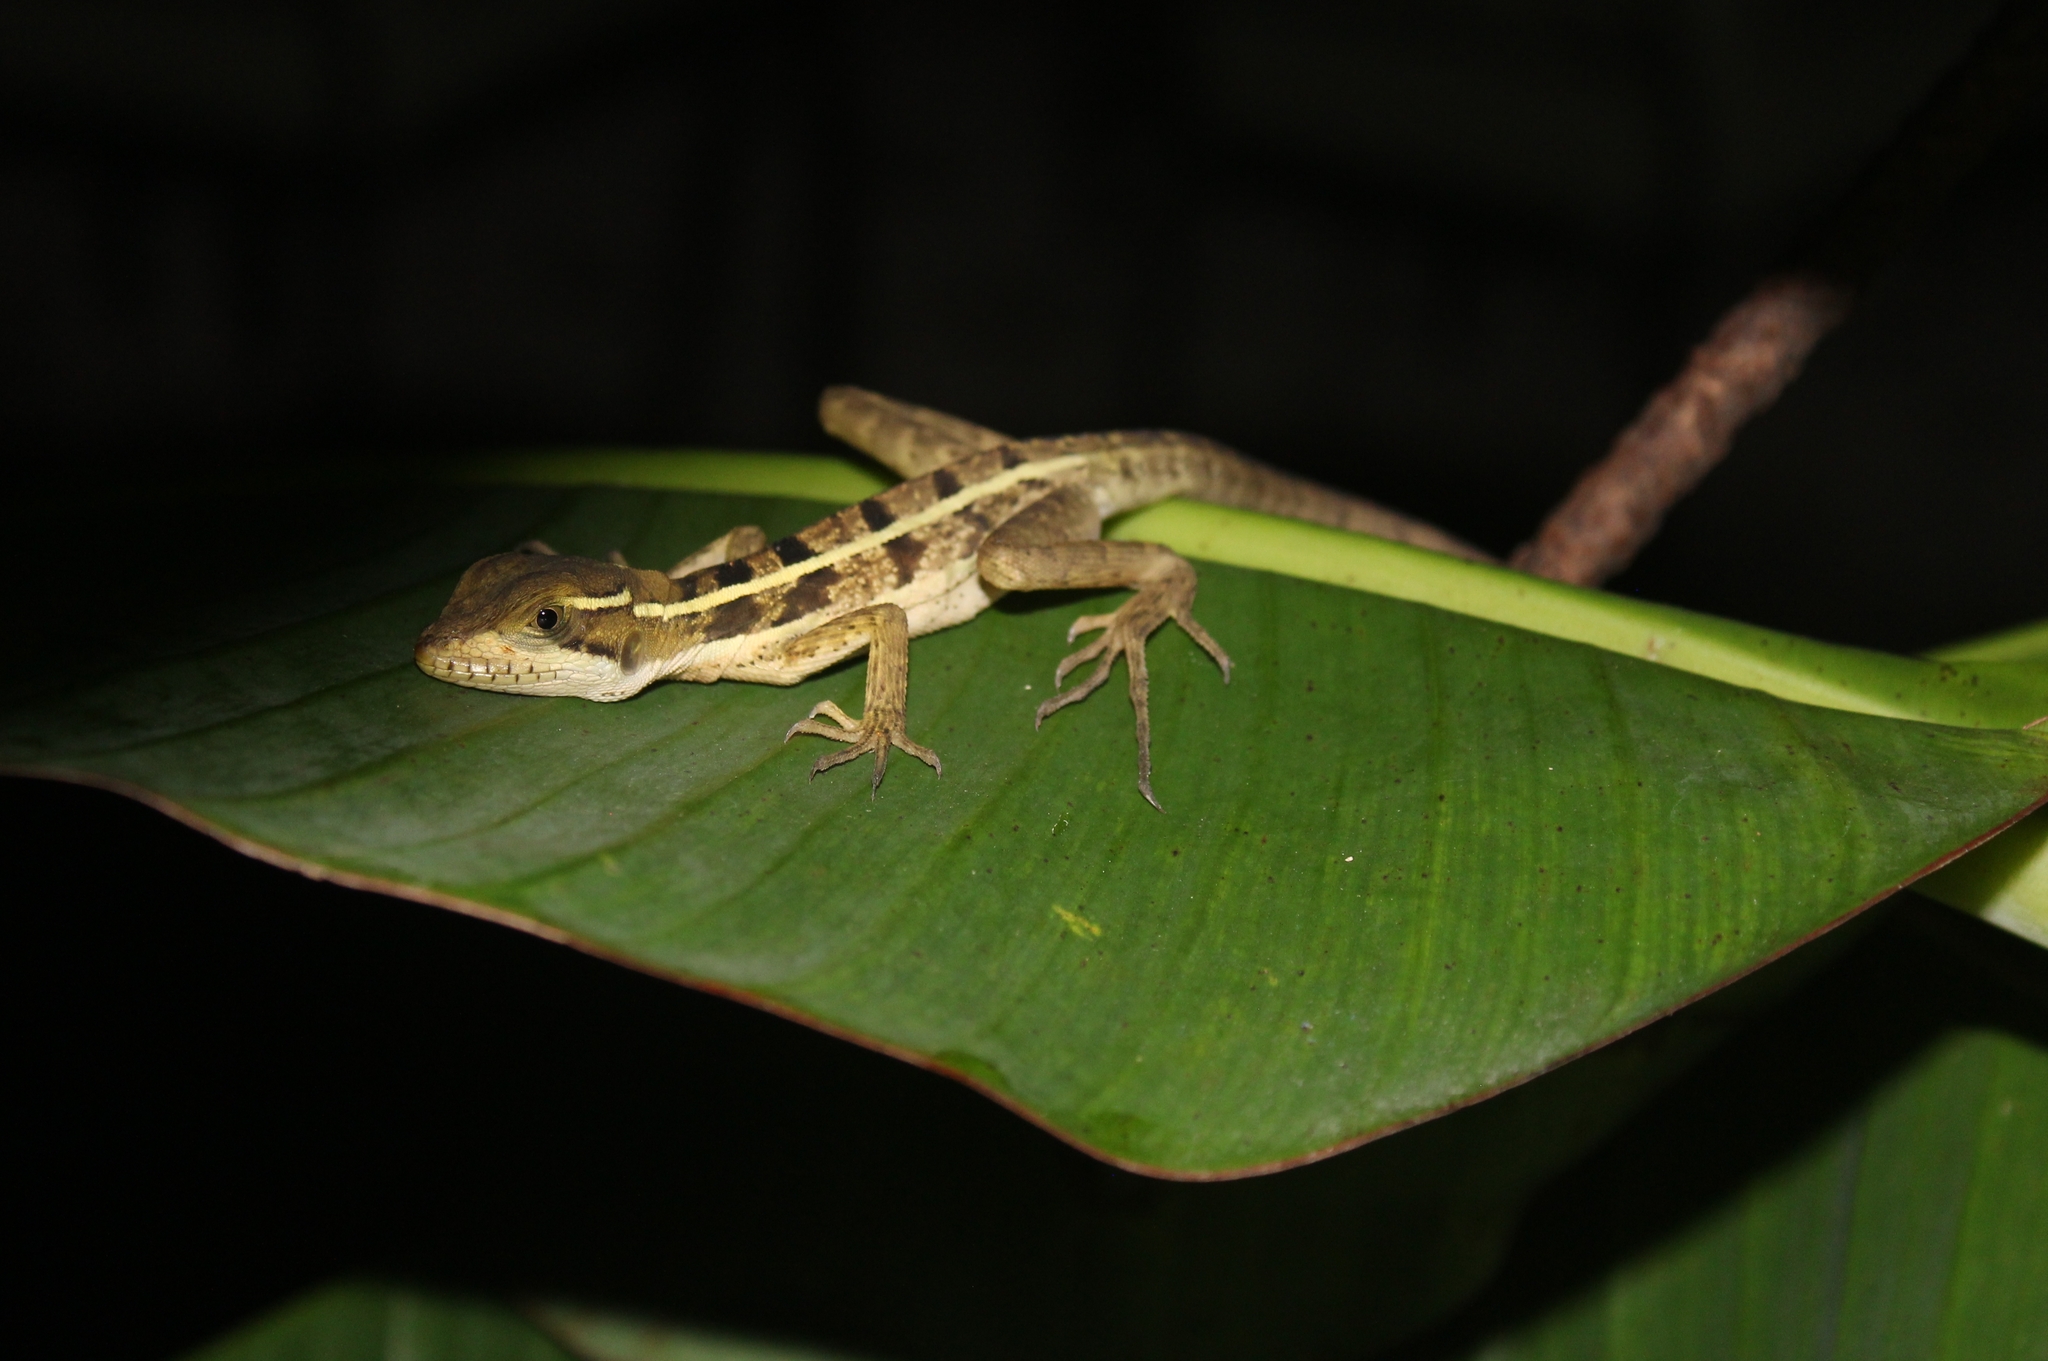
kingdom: Animalia
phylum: Chordata
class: Squamata
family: Corytophanidae
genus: Basiliscus
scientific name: Basiliscus vittatus
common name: Brown basilisk
